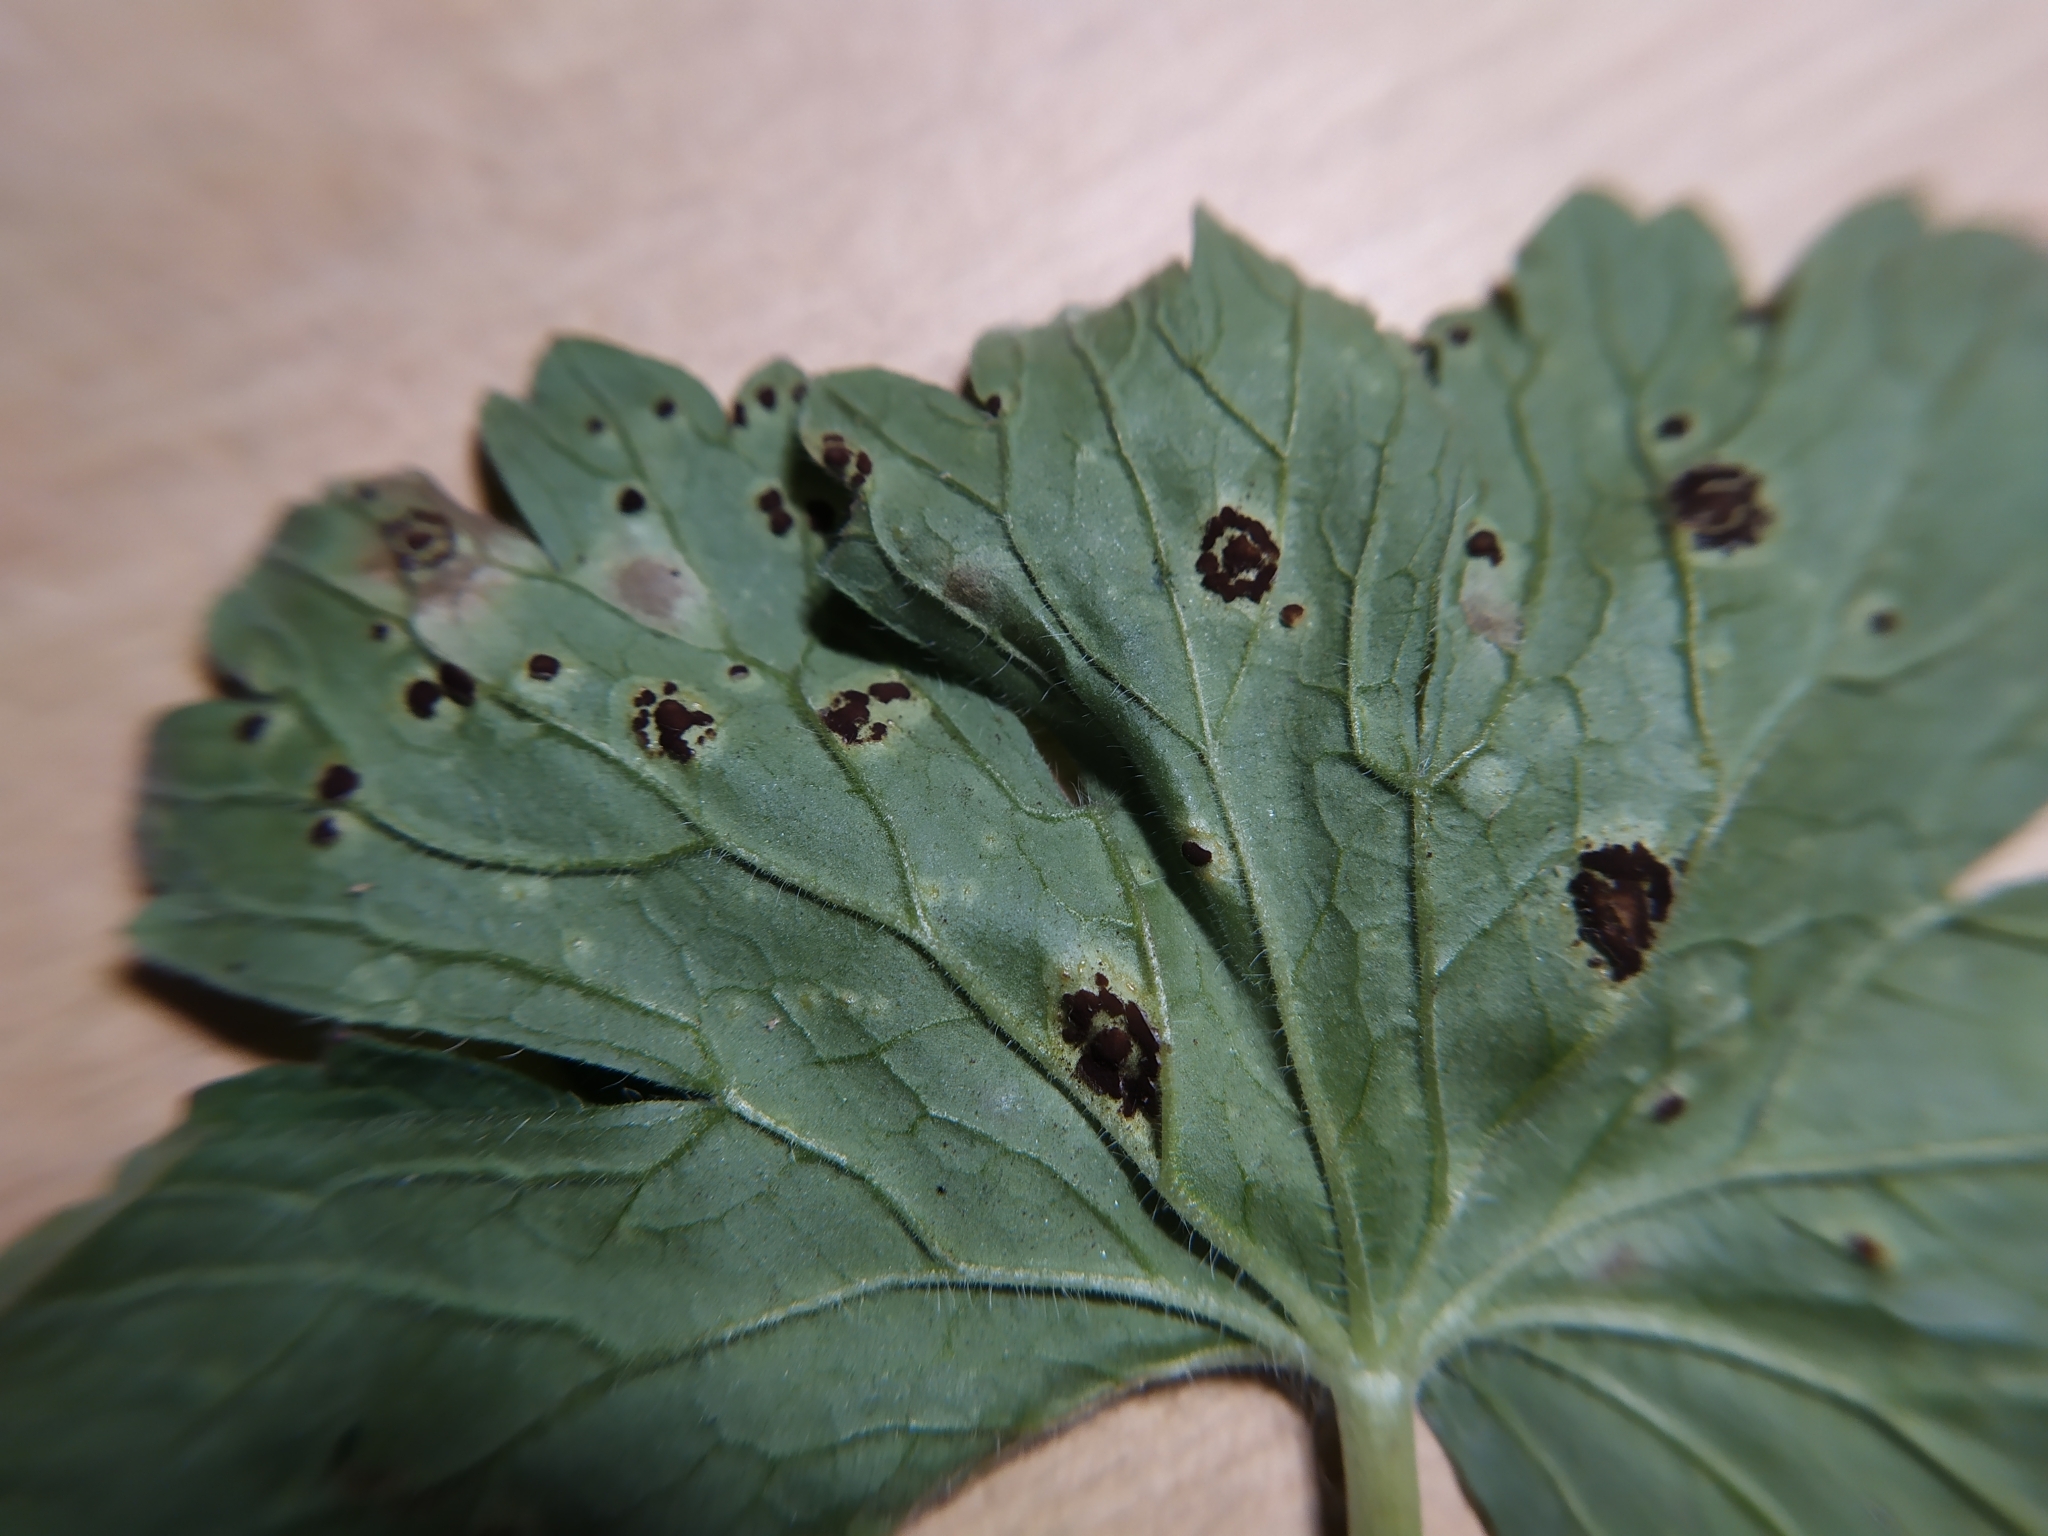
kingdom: Fungi
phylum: Basidiomycota
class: Pucciniomycetes
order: Pucciniales
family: Pucciniaceae
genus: Uromyces
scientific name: Uromyces geranii
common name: Geranium rust
